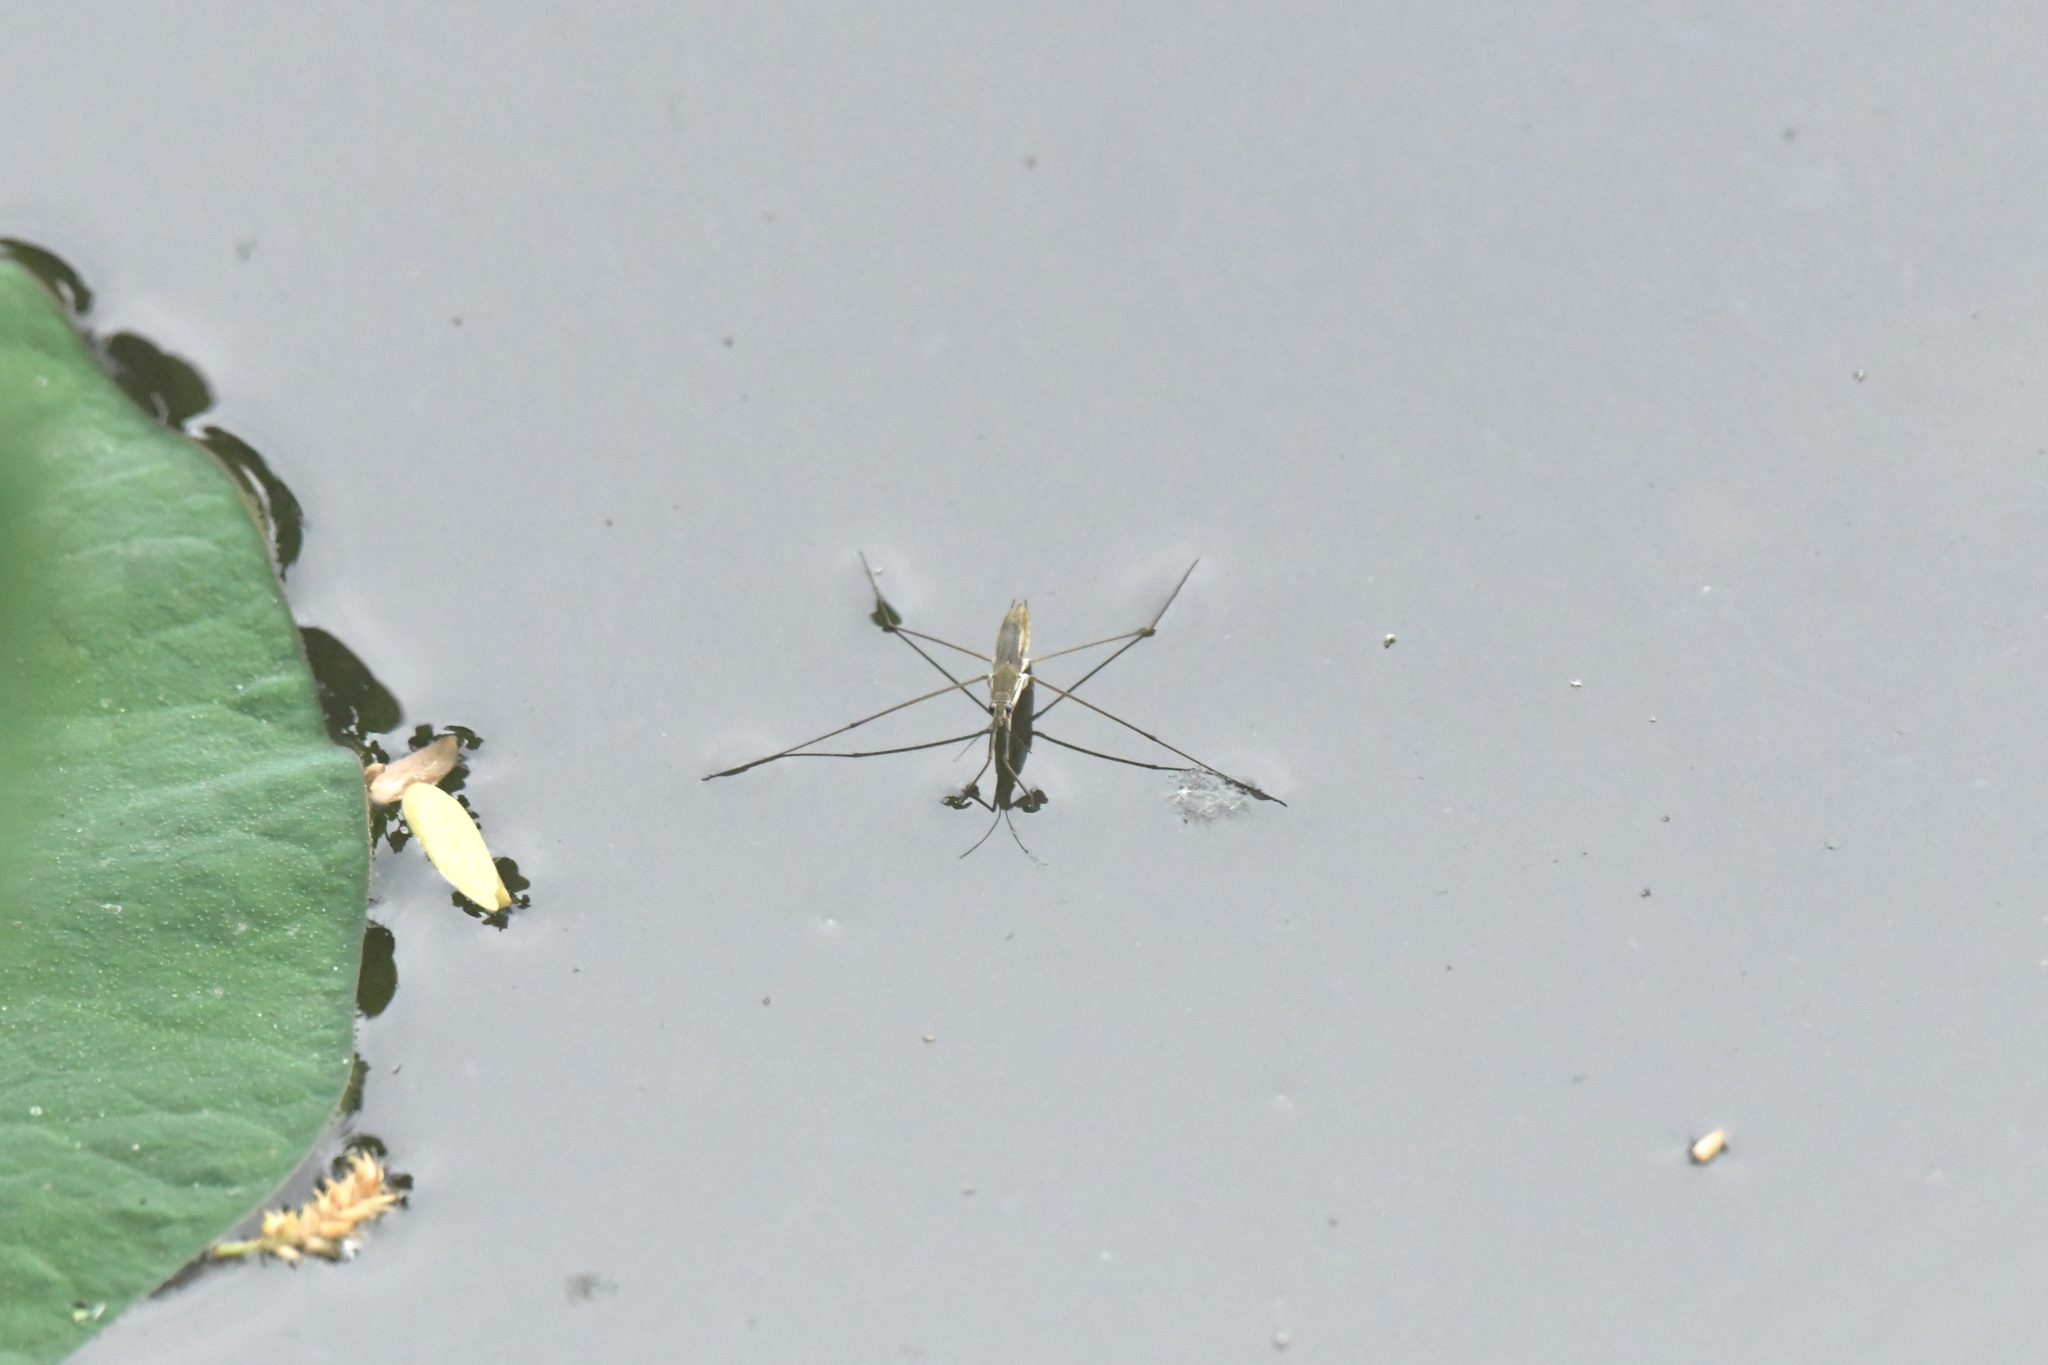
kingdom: Animalia
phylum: Arthropoda
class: Insecta
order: Hemiptera
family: Gerridae
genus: Aquarius
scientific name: Aquarius paludum
